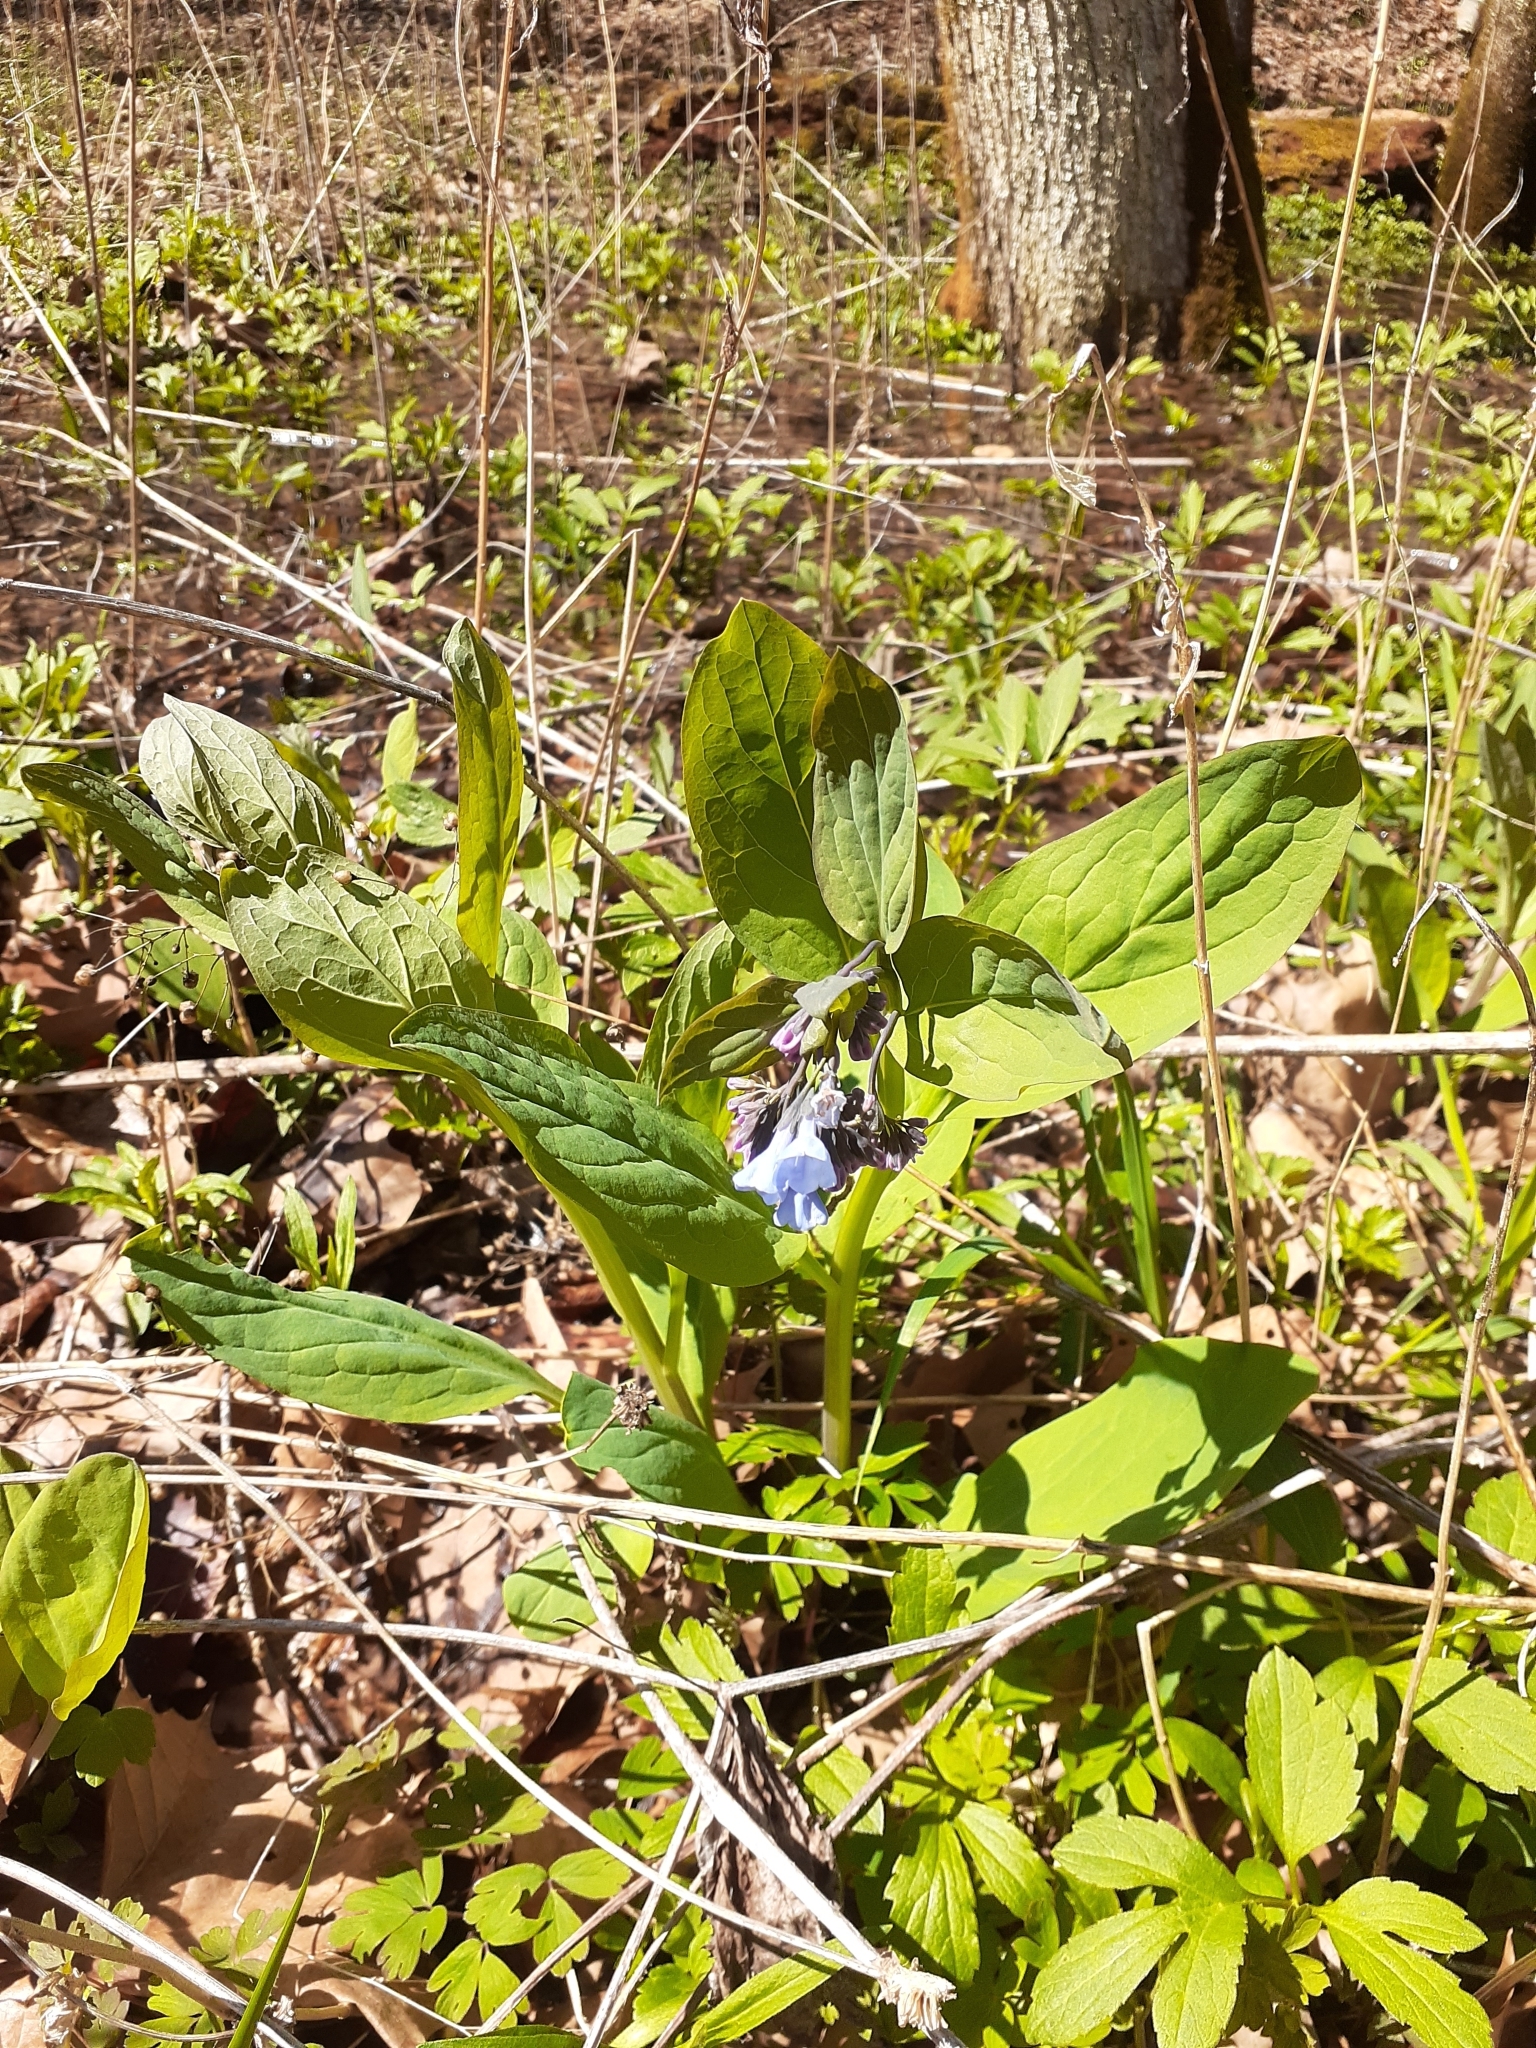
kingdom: Plantae
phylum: Tracheophyta
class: Magnoliopsida
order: Boraginales
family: Boraginaceae
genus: Mertensia
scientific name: Mertensia virginica
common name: Virginia bluebells
